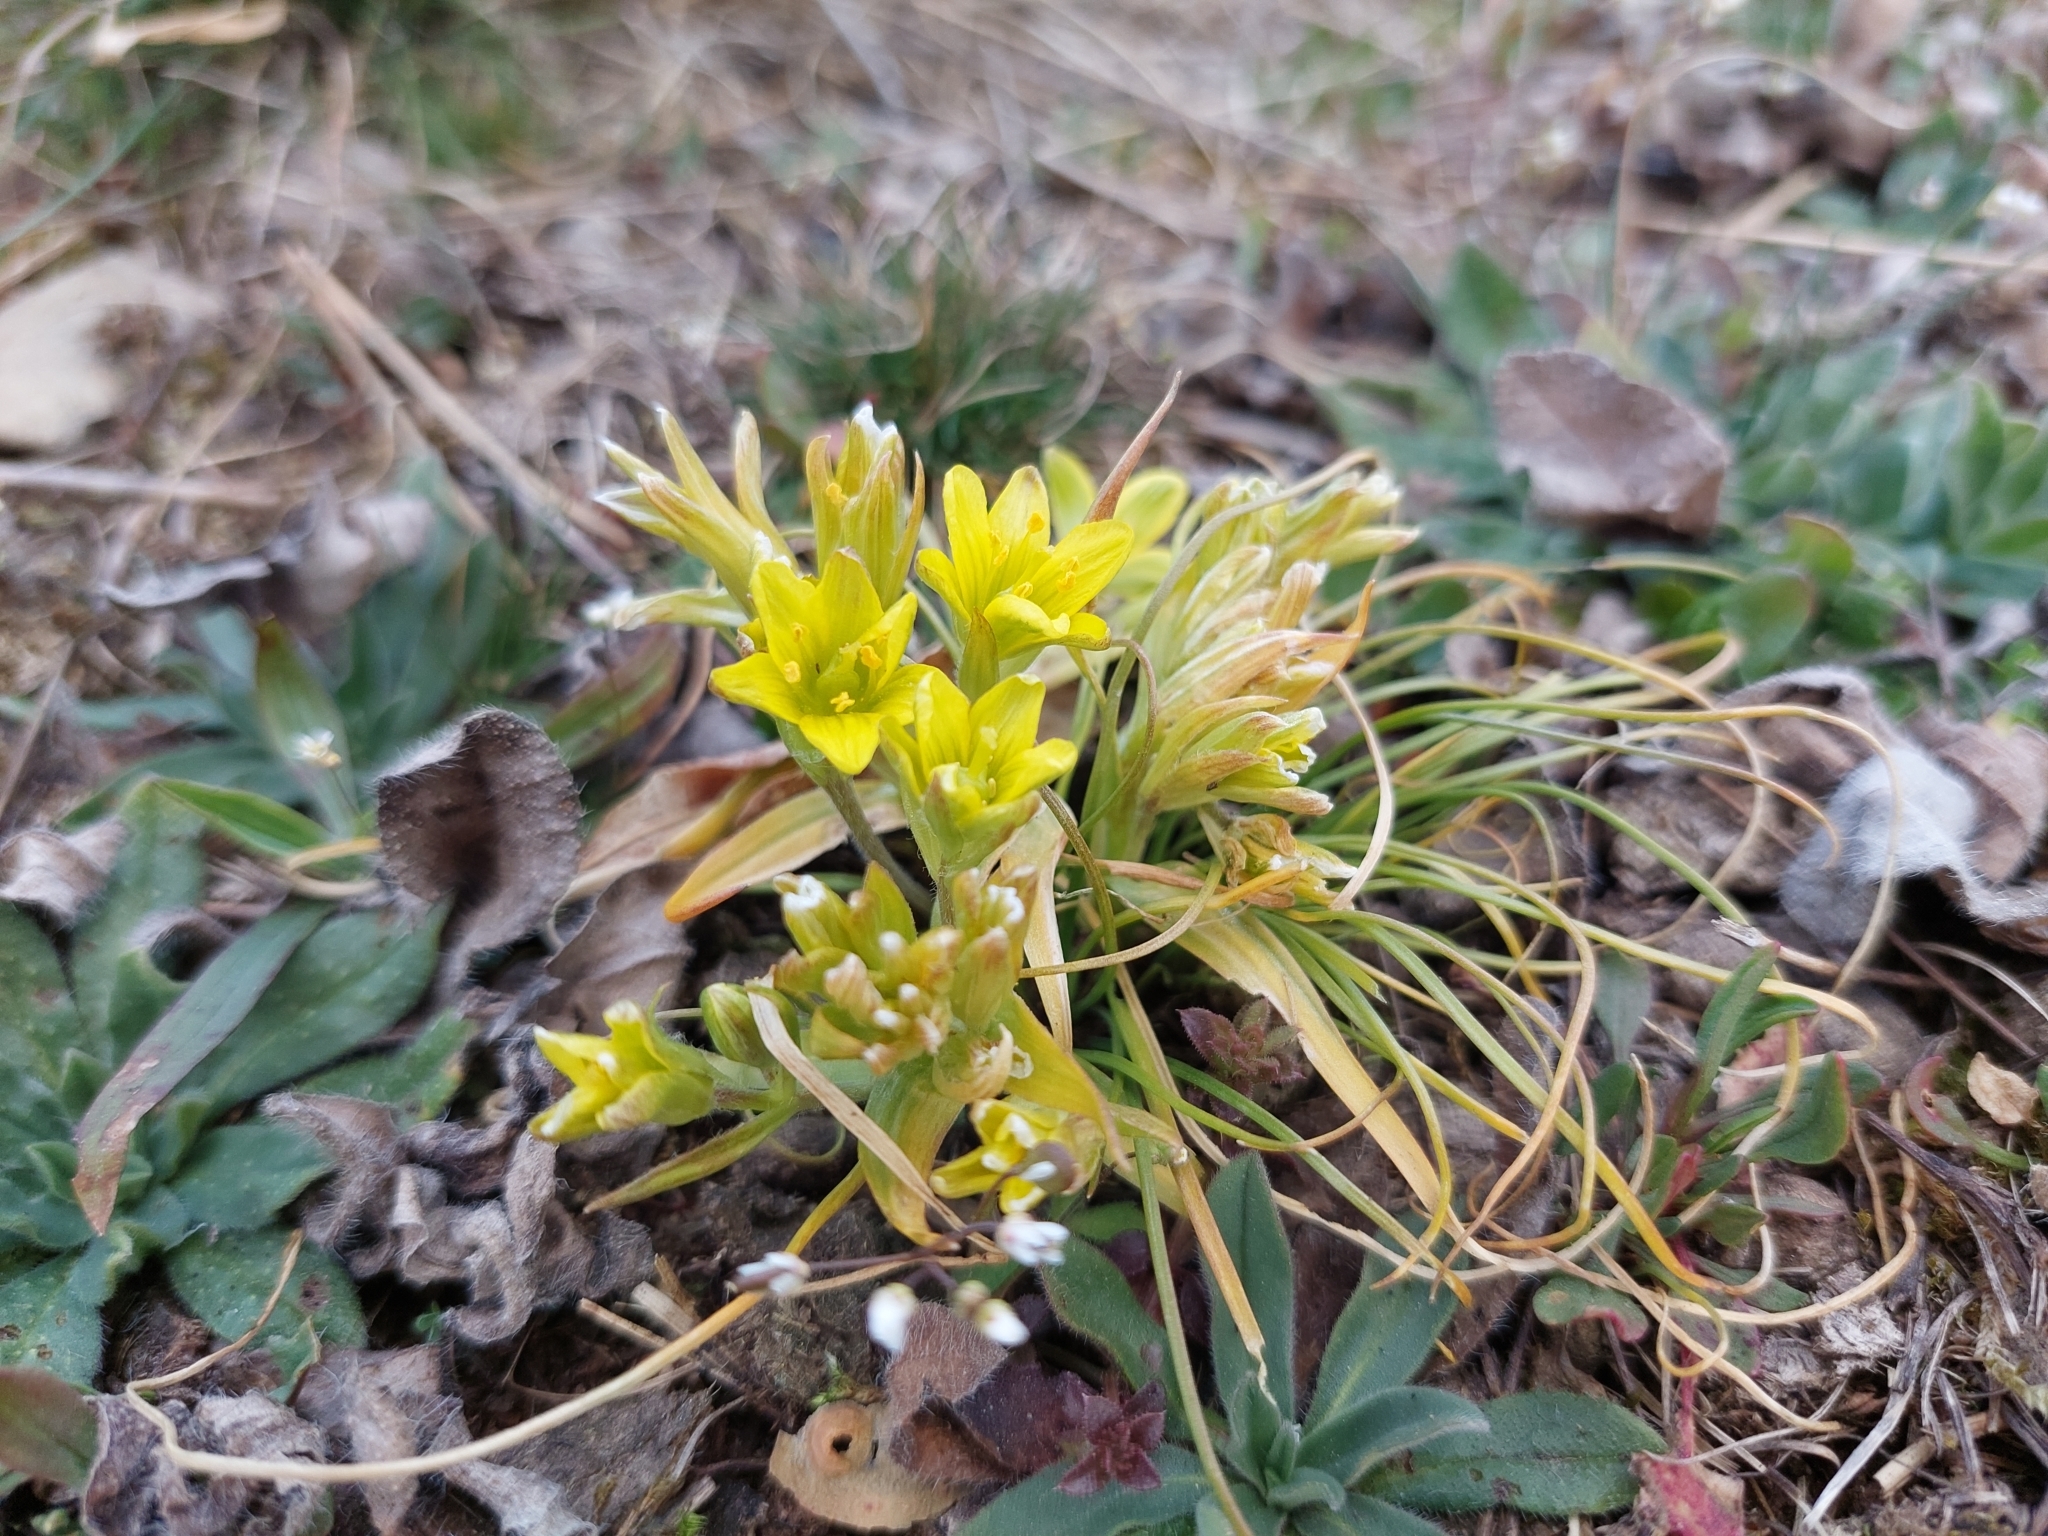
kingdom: Plantae
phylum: Tracheophyta
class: Liliopsida
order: Liliales
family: Liliaceae
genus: Gagea
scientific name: Gagea bohemica
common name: Early star-of-bethlehem
